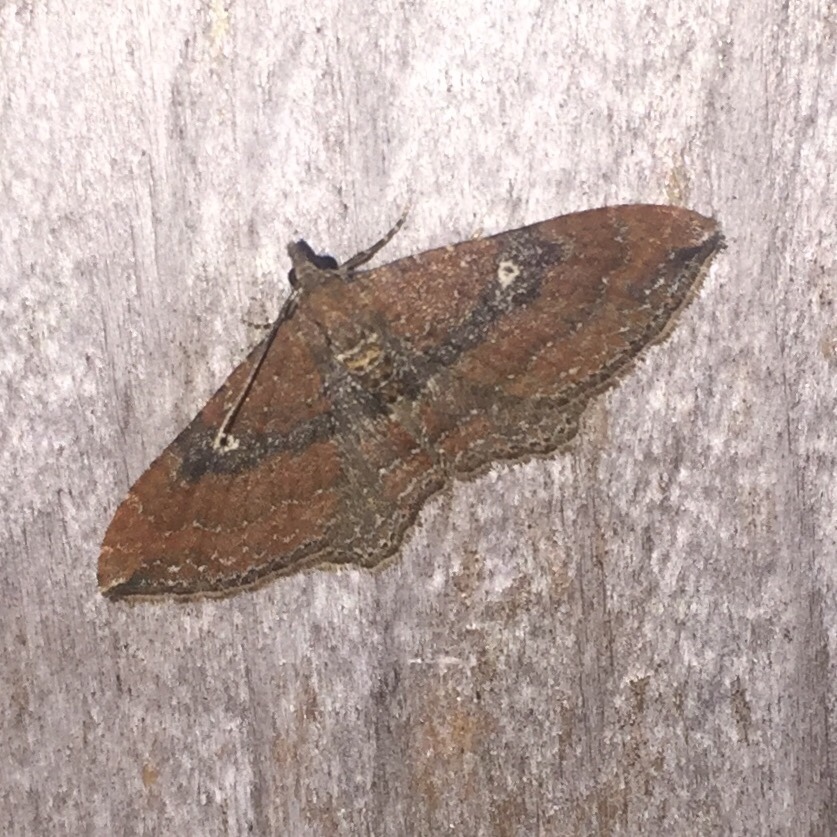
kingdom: Animalia
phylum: Arthropoda
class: Insecta
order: Lepidoptera
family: Geometridae
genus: Orthonama
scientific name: Orthonama obstipata
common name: The gem
